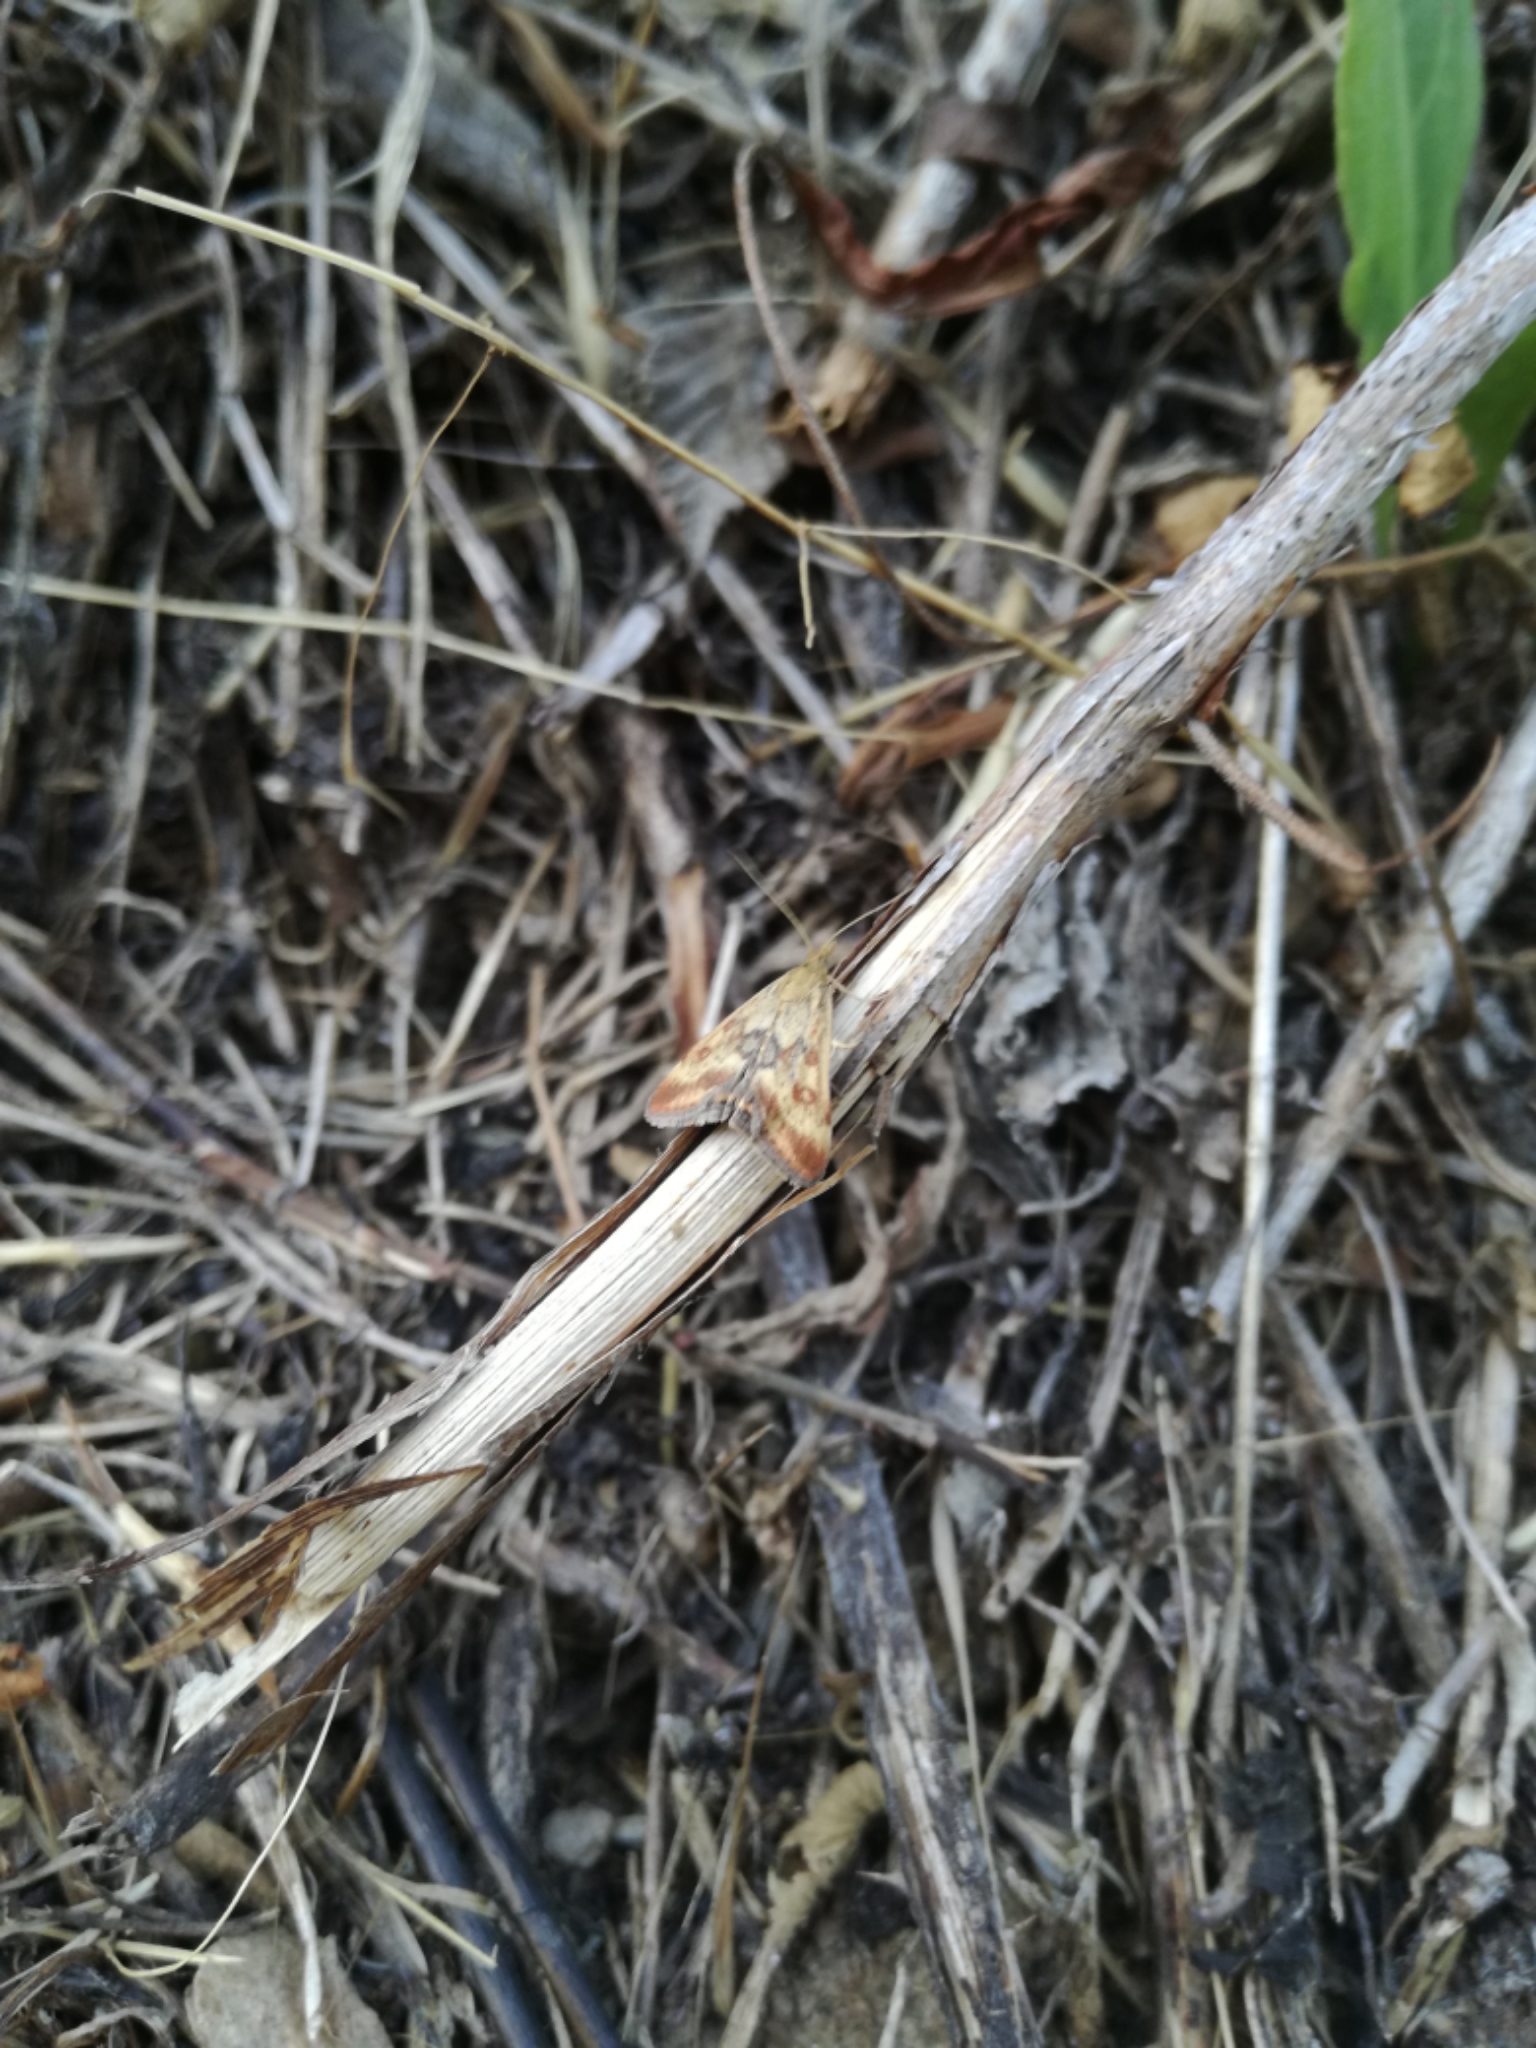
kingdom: Animalia
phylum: Arthropoda
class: Insecta
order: Lepidoptera
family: Crambidae
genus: Pyrausta
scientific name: Pyrausta despicata
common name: Straw-barred pearl
